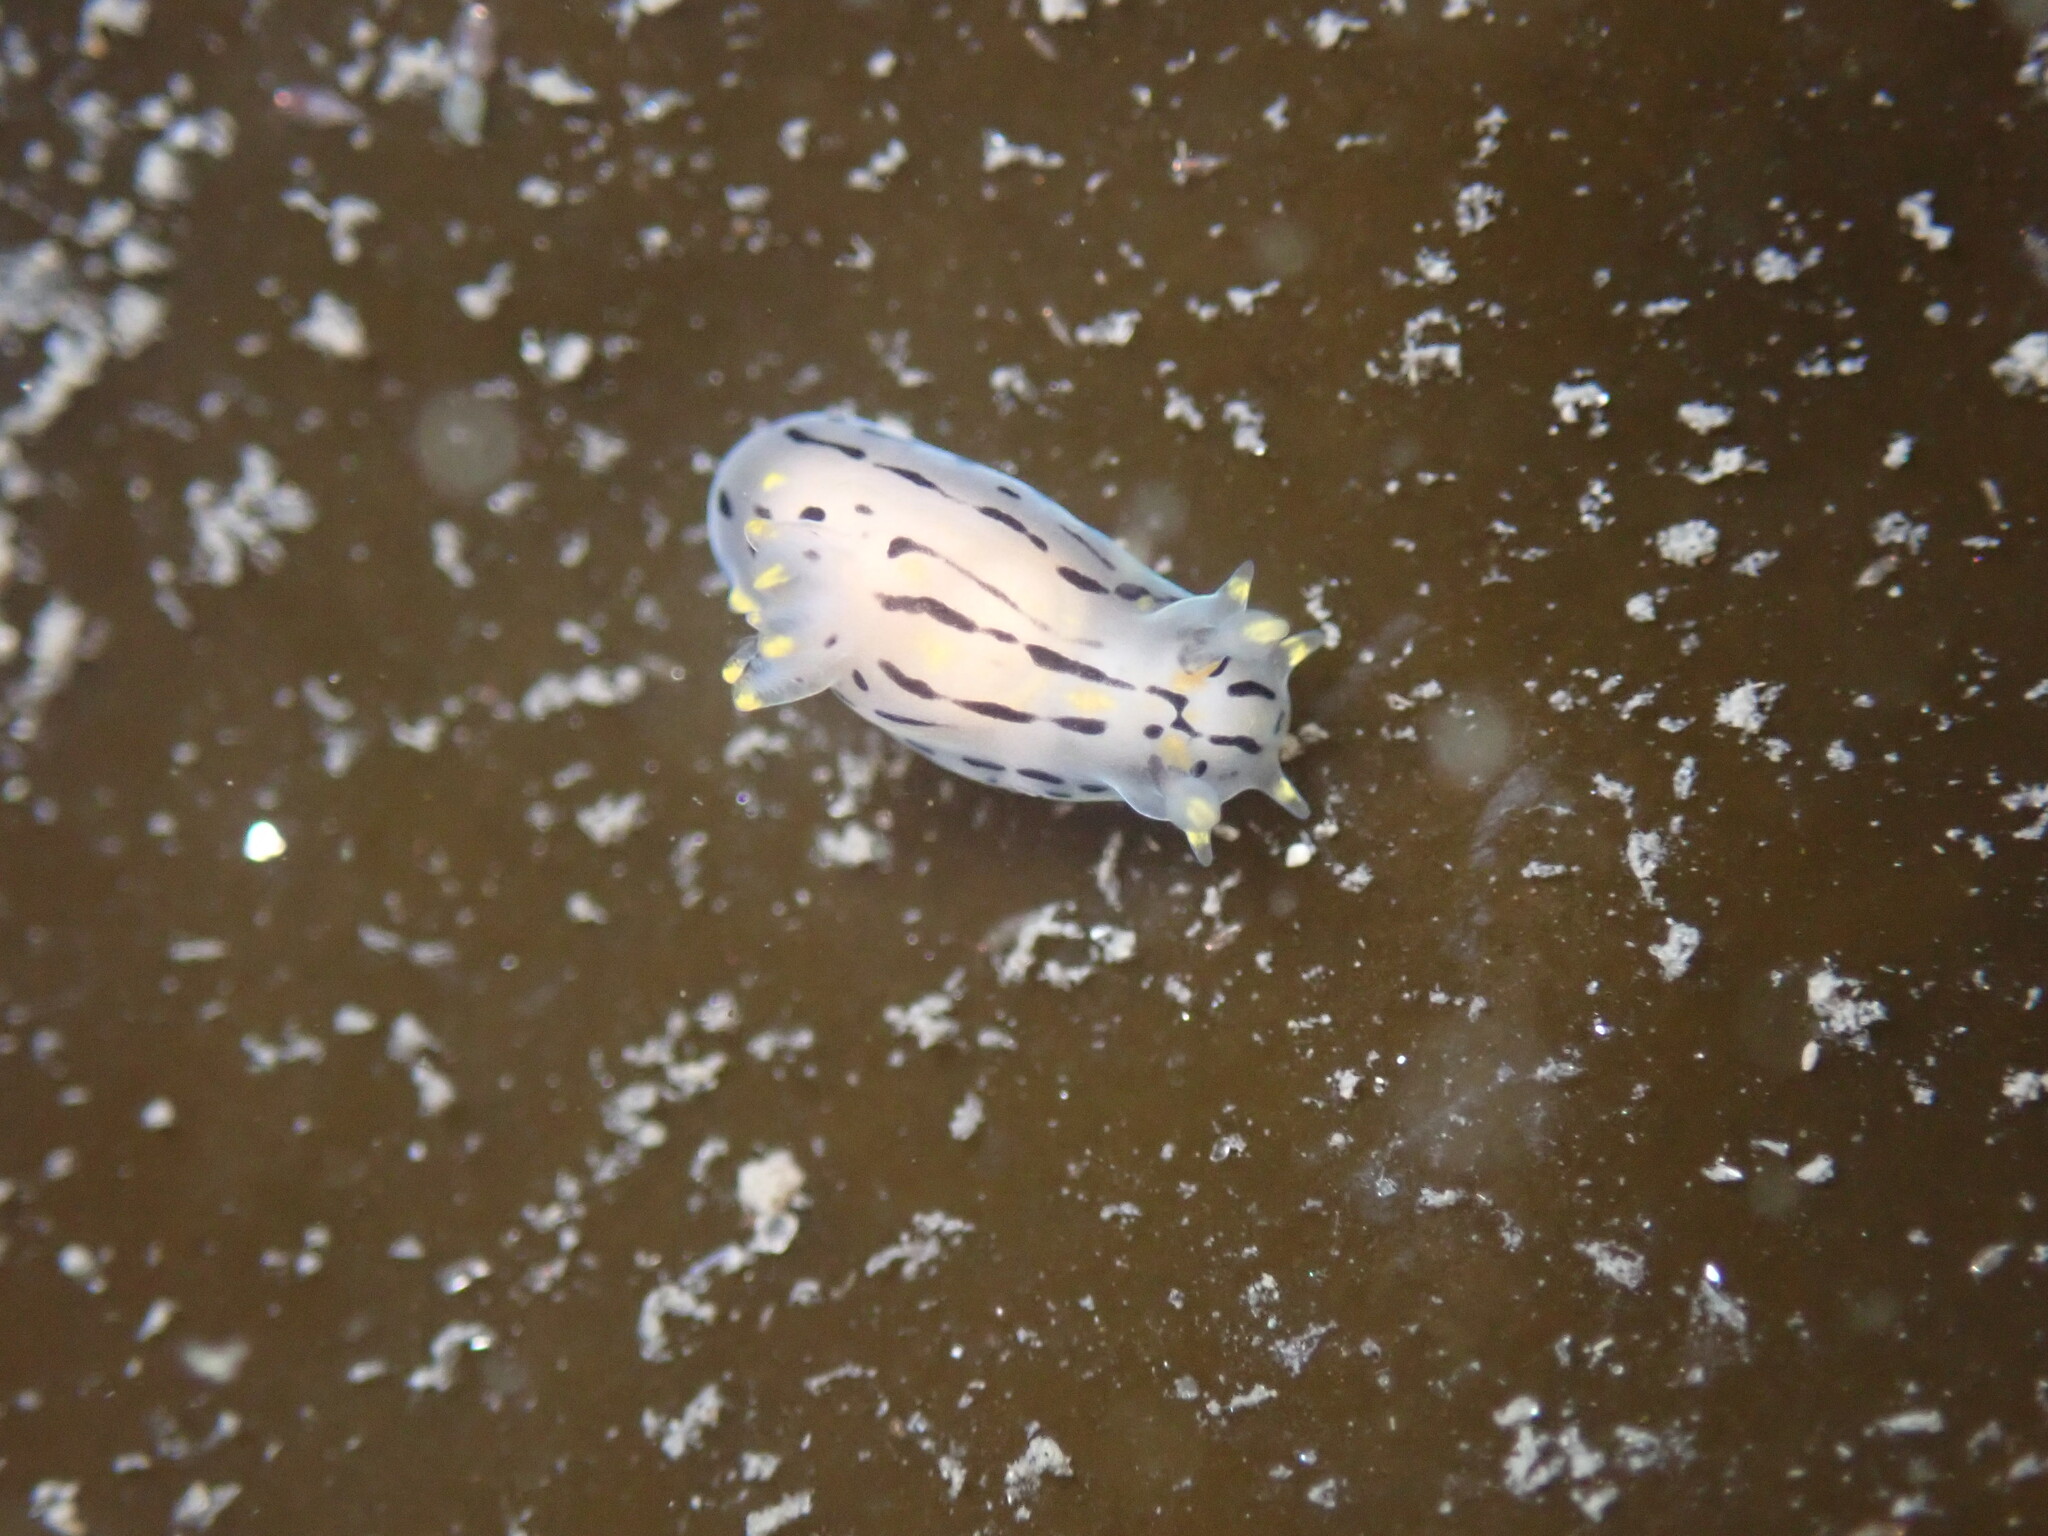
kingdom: Animalia
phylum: Mollusca
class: Gastropoda
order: Nudibranchia
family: Polyceridae
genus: Polycera
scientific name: Polycera atra
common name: Orange-spike polycera
